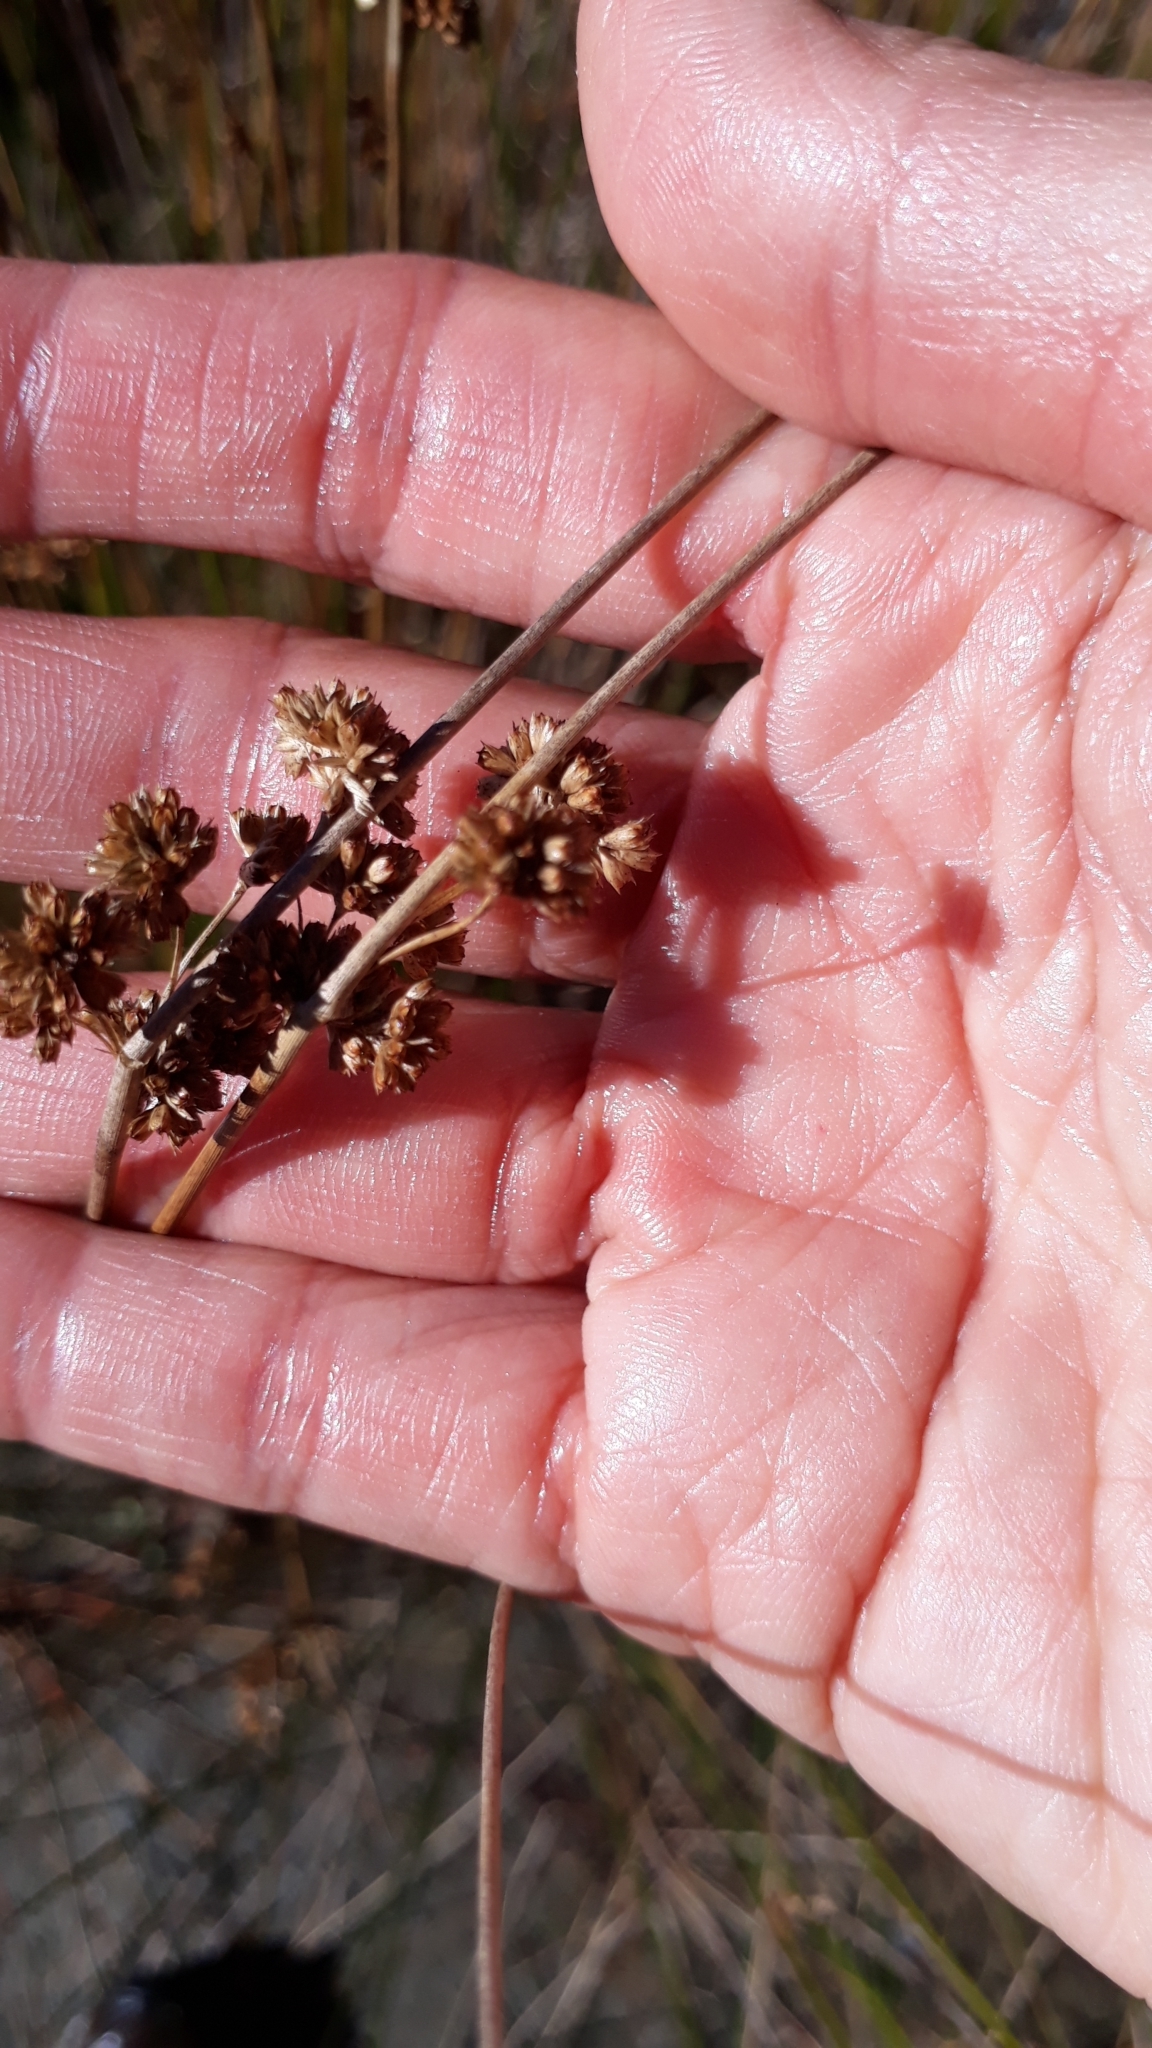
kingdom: Plantae
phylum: Tracheophyta
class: Liliopsida
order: Poales
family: Juncaceae
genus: Juncus
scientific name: Juncus edgariae
